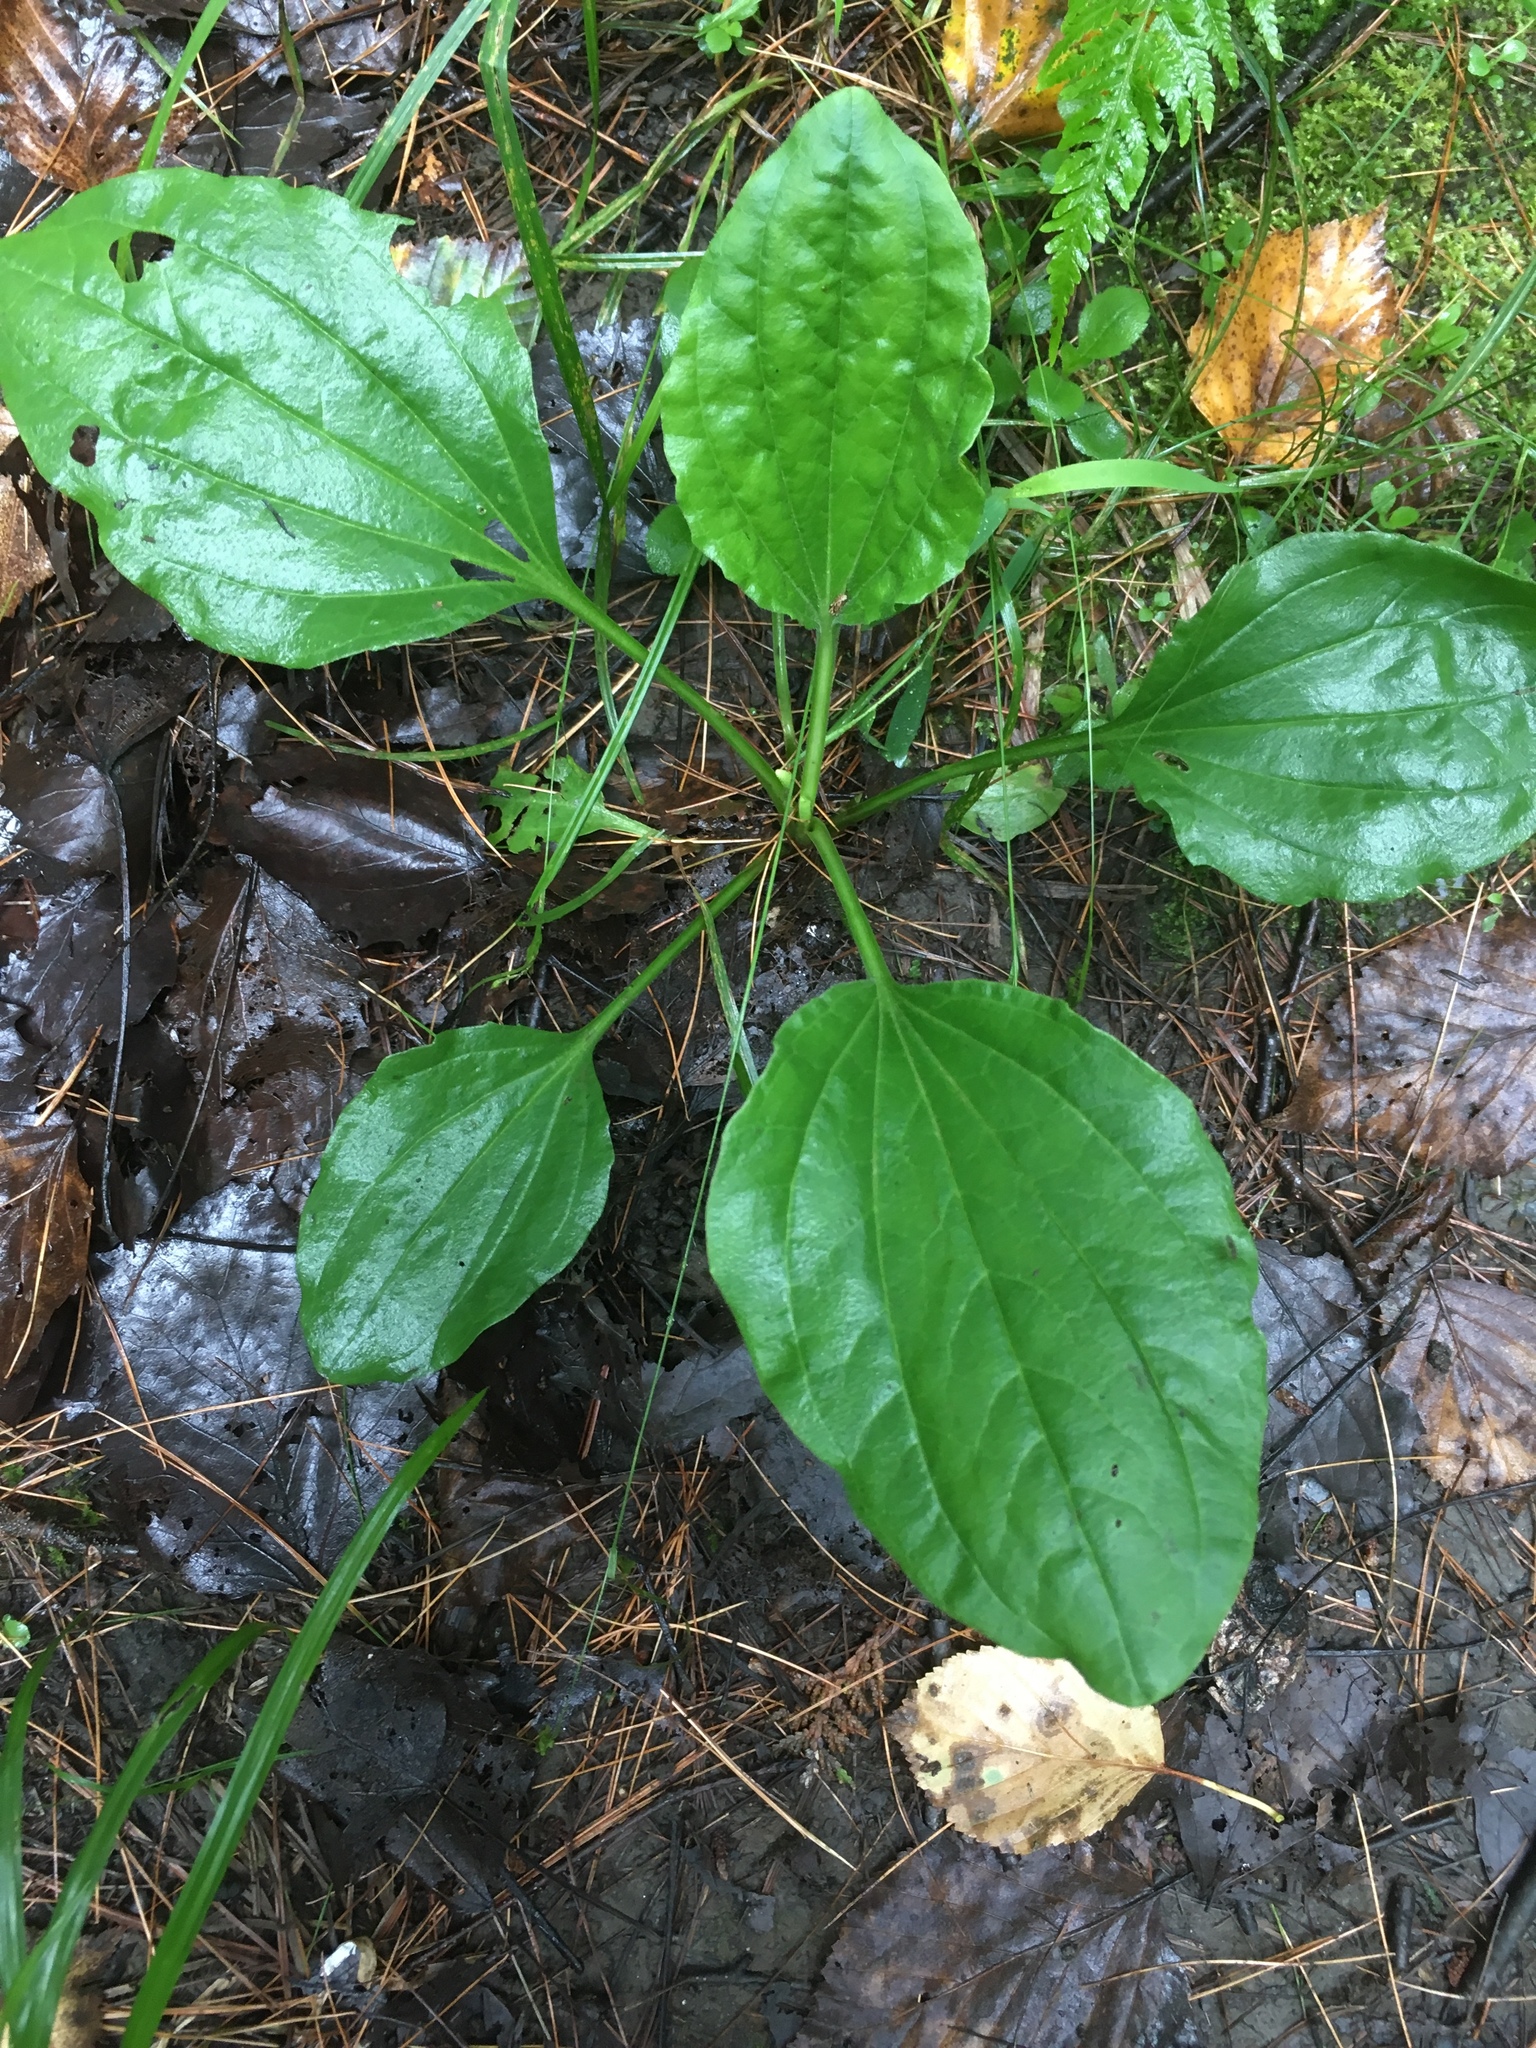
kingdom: Plantae
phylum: Tracheophyta
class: Magnoliopsida
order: Lamiales
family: Plantaginaceae
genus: Plantago
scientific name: Plantago major
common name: Common plantain
